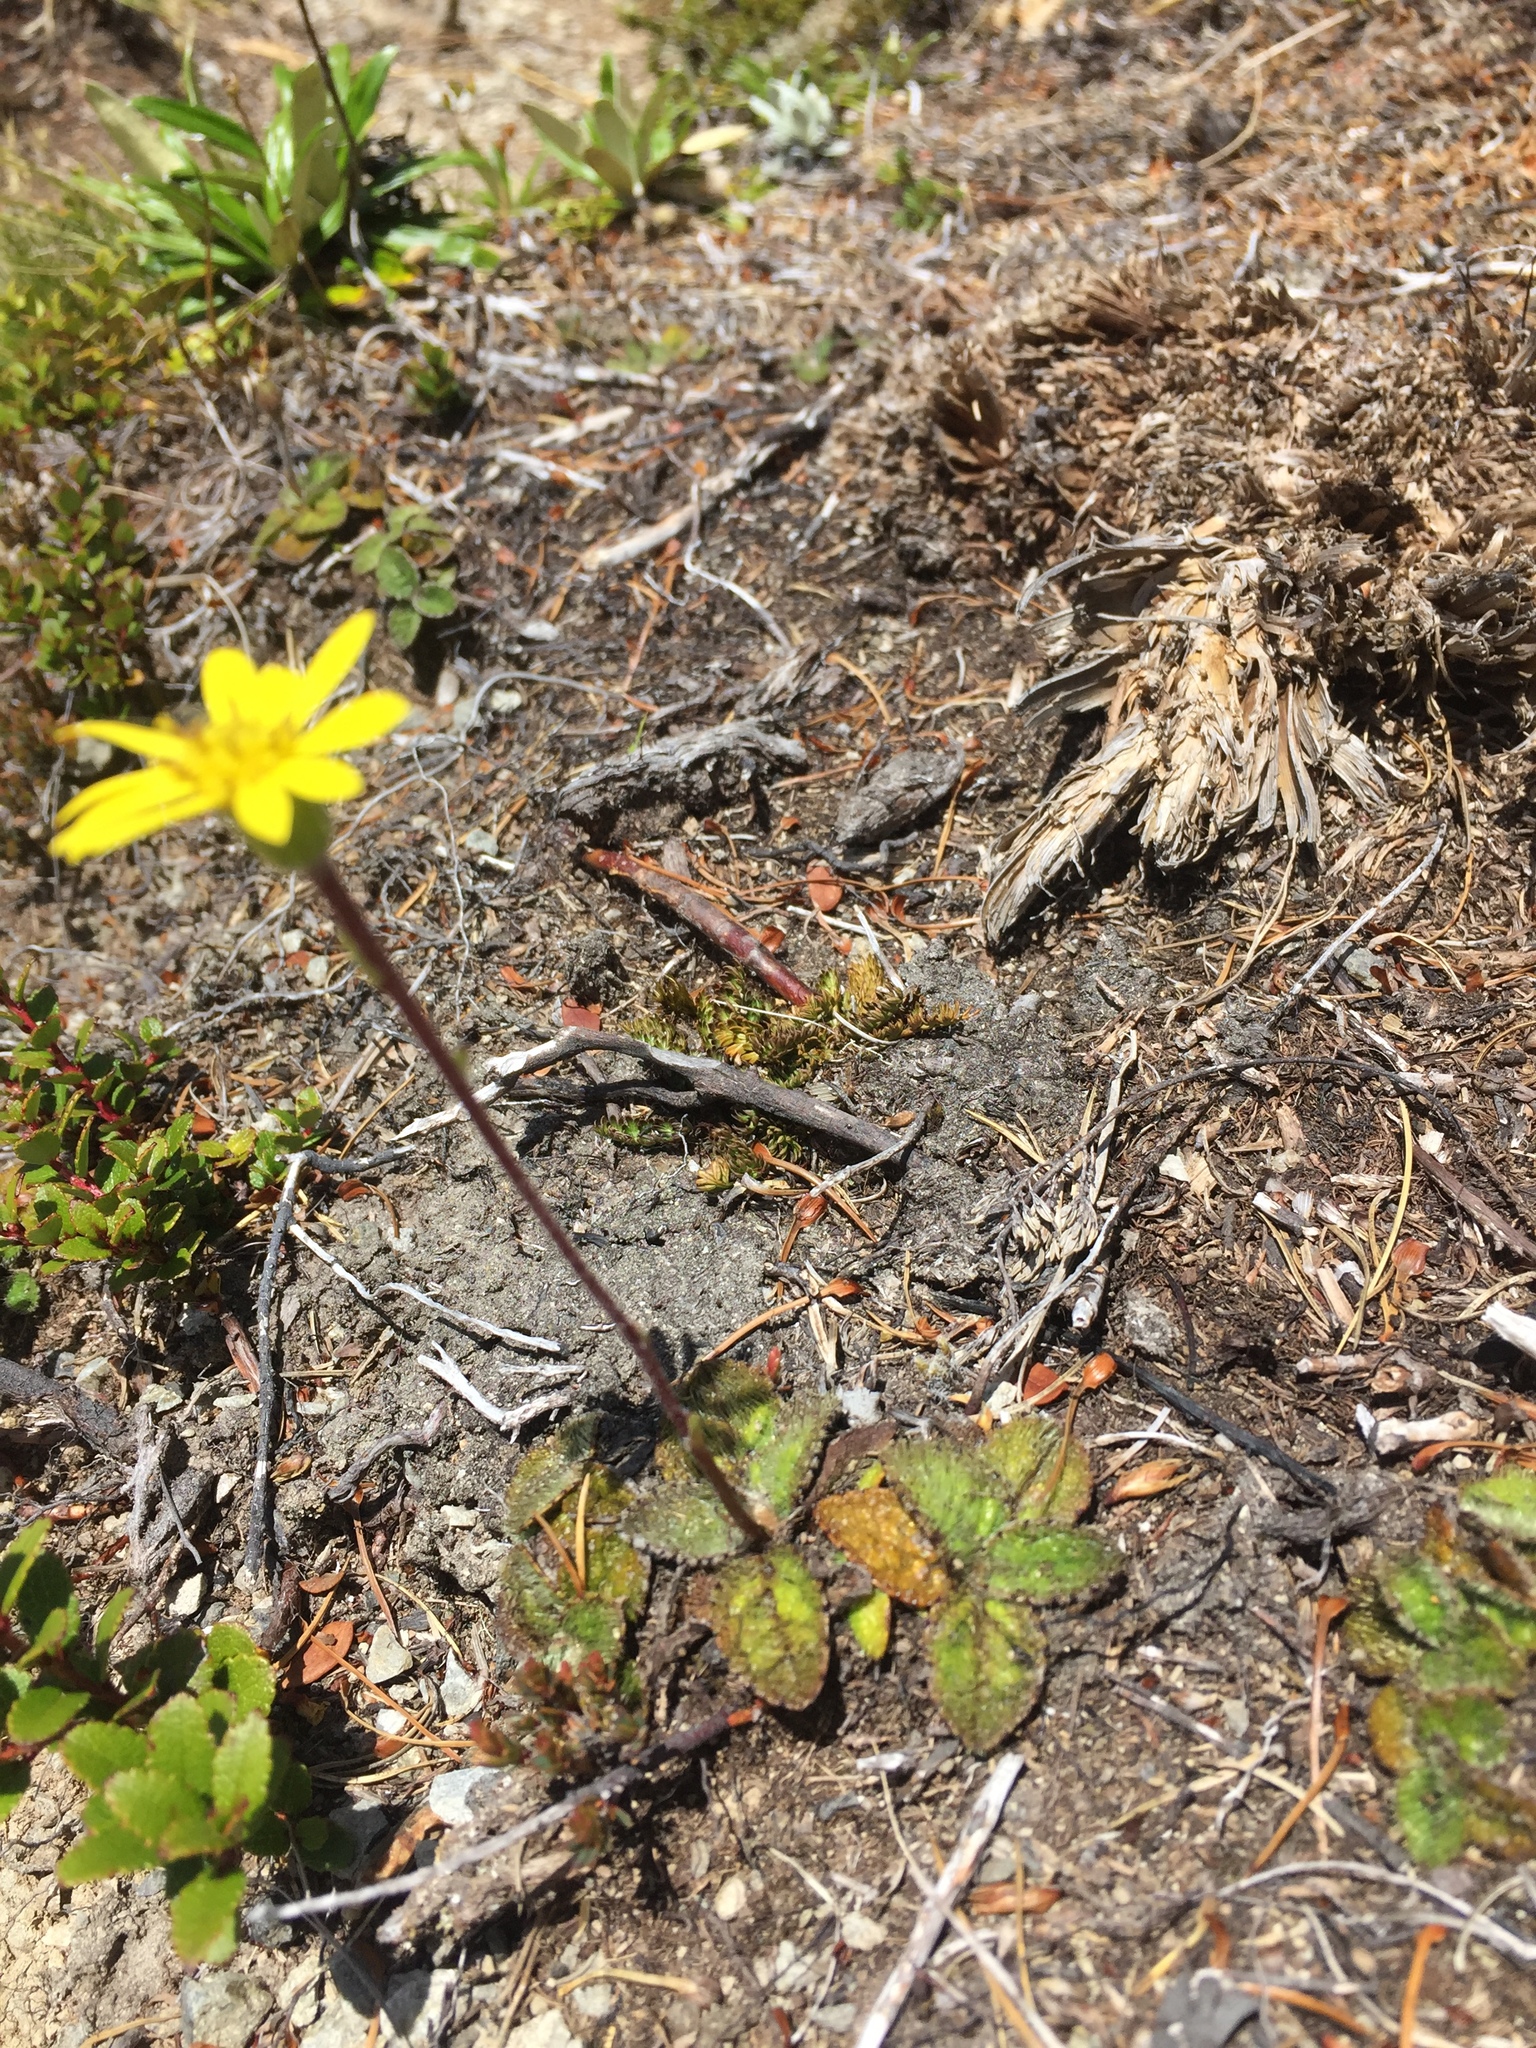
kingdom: Plantae
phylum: Tracheophyta
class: Magnoliopsida
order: Asterales
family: Asteraceae
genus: Brachyglottis
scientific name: Brachyglottis lagopus
